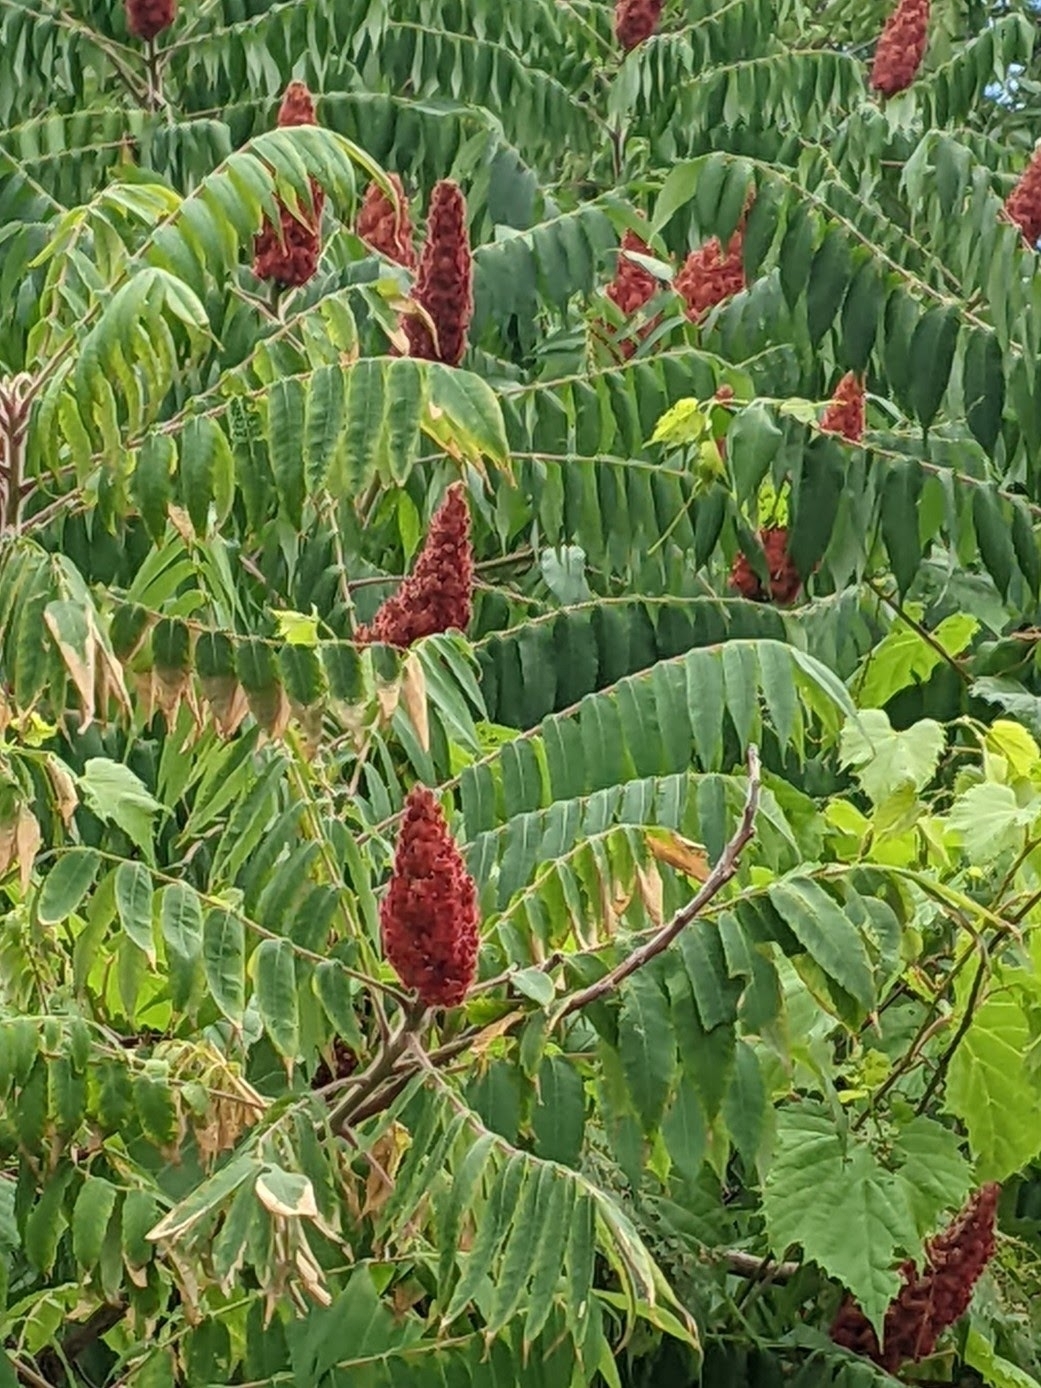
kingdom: Plantae
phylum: Tracheophyta
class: Magnoliopsida
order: Sapindales
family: Anacardiaceae
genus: Rhus
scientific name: Rhus typhina
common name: Staghorn sumac
